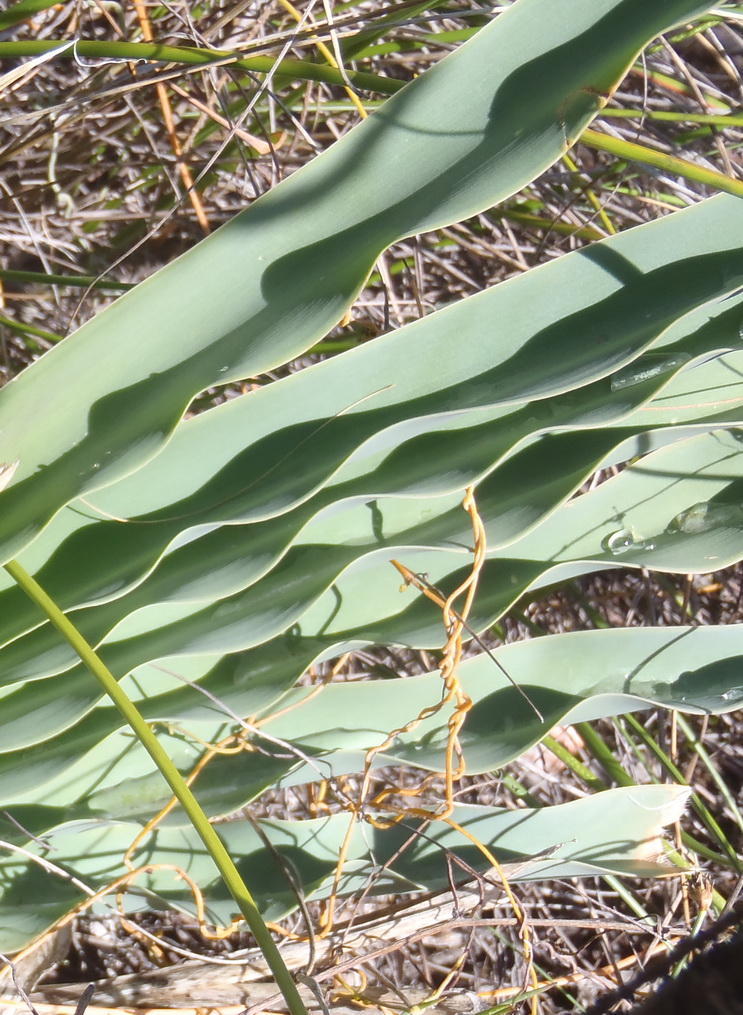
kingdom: Plantae
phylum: Tracheophyta
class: Liliopsida
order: Asparagales
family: Amaryllidaceae
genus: Boophone
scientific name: Boophone disticha
